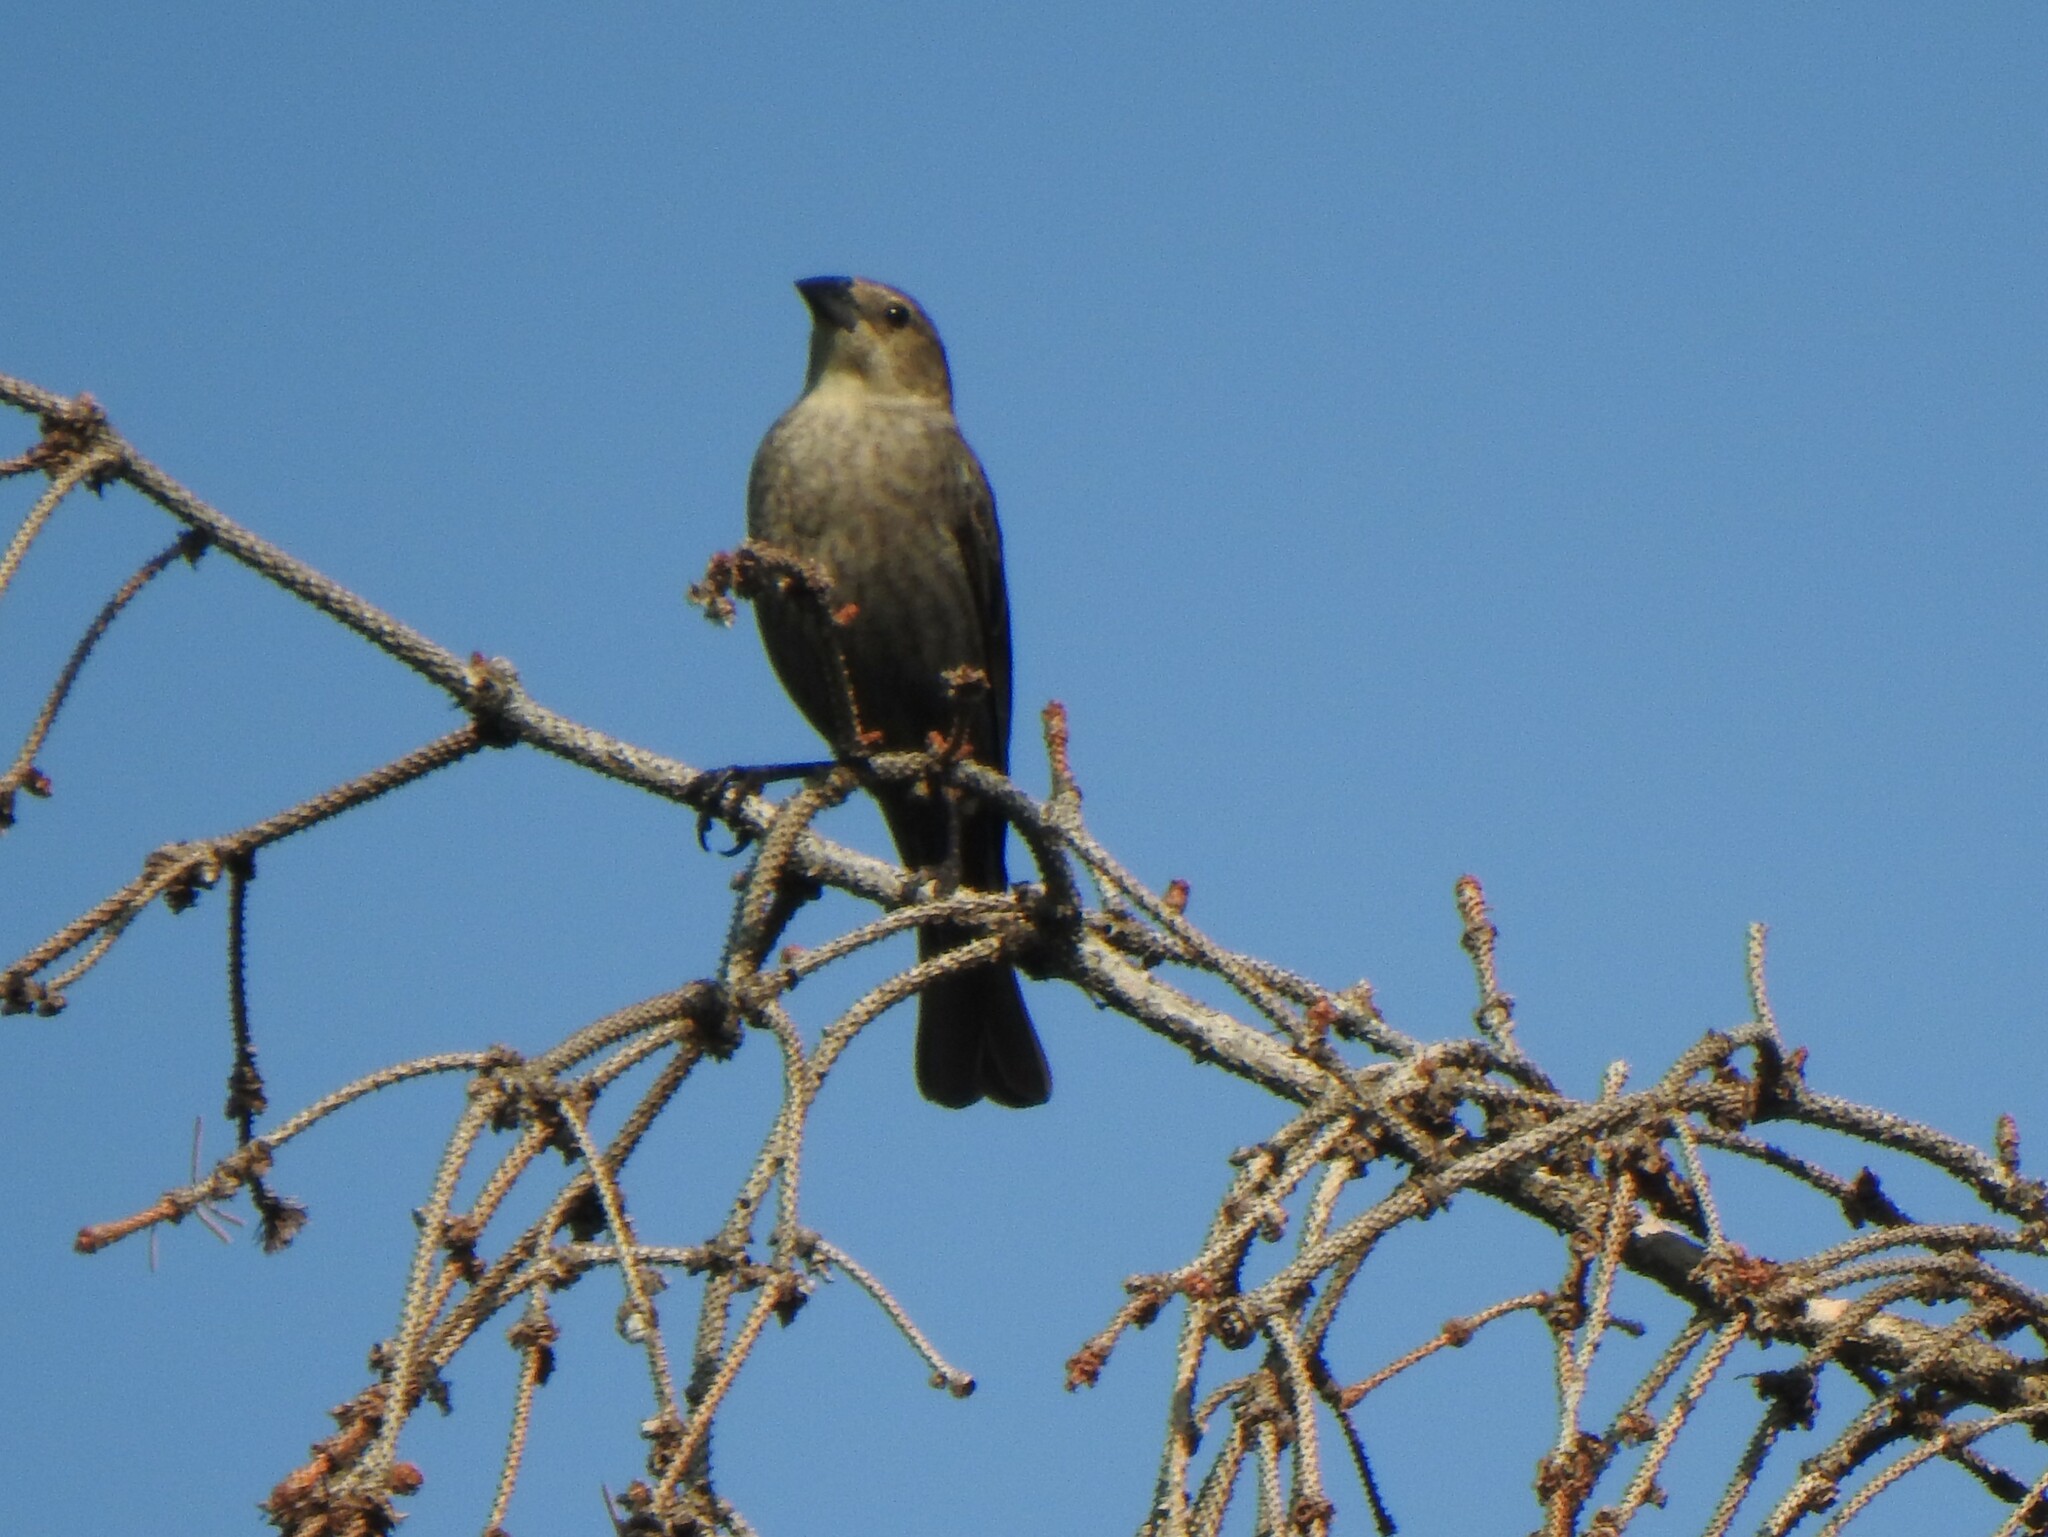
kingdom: Animalia
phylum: Chordata
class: Aves
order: Passeriformes
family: Icteridae
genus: Molothrus
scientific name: Molothrus ater
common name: Brown-headed cowbird
